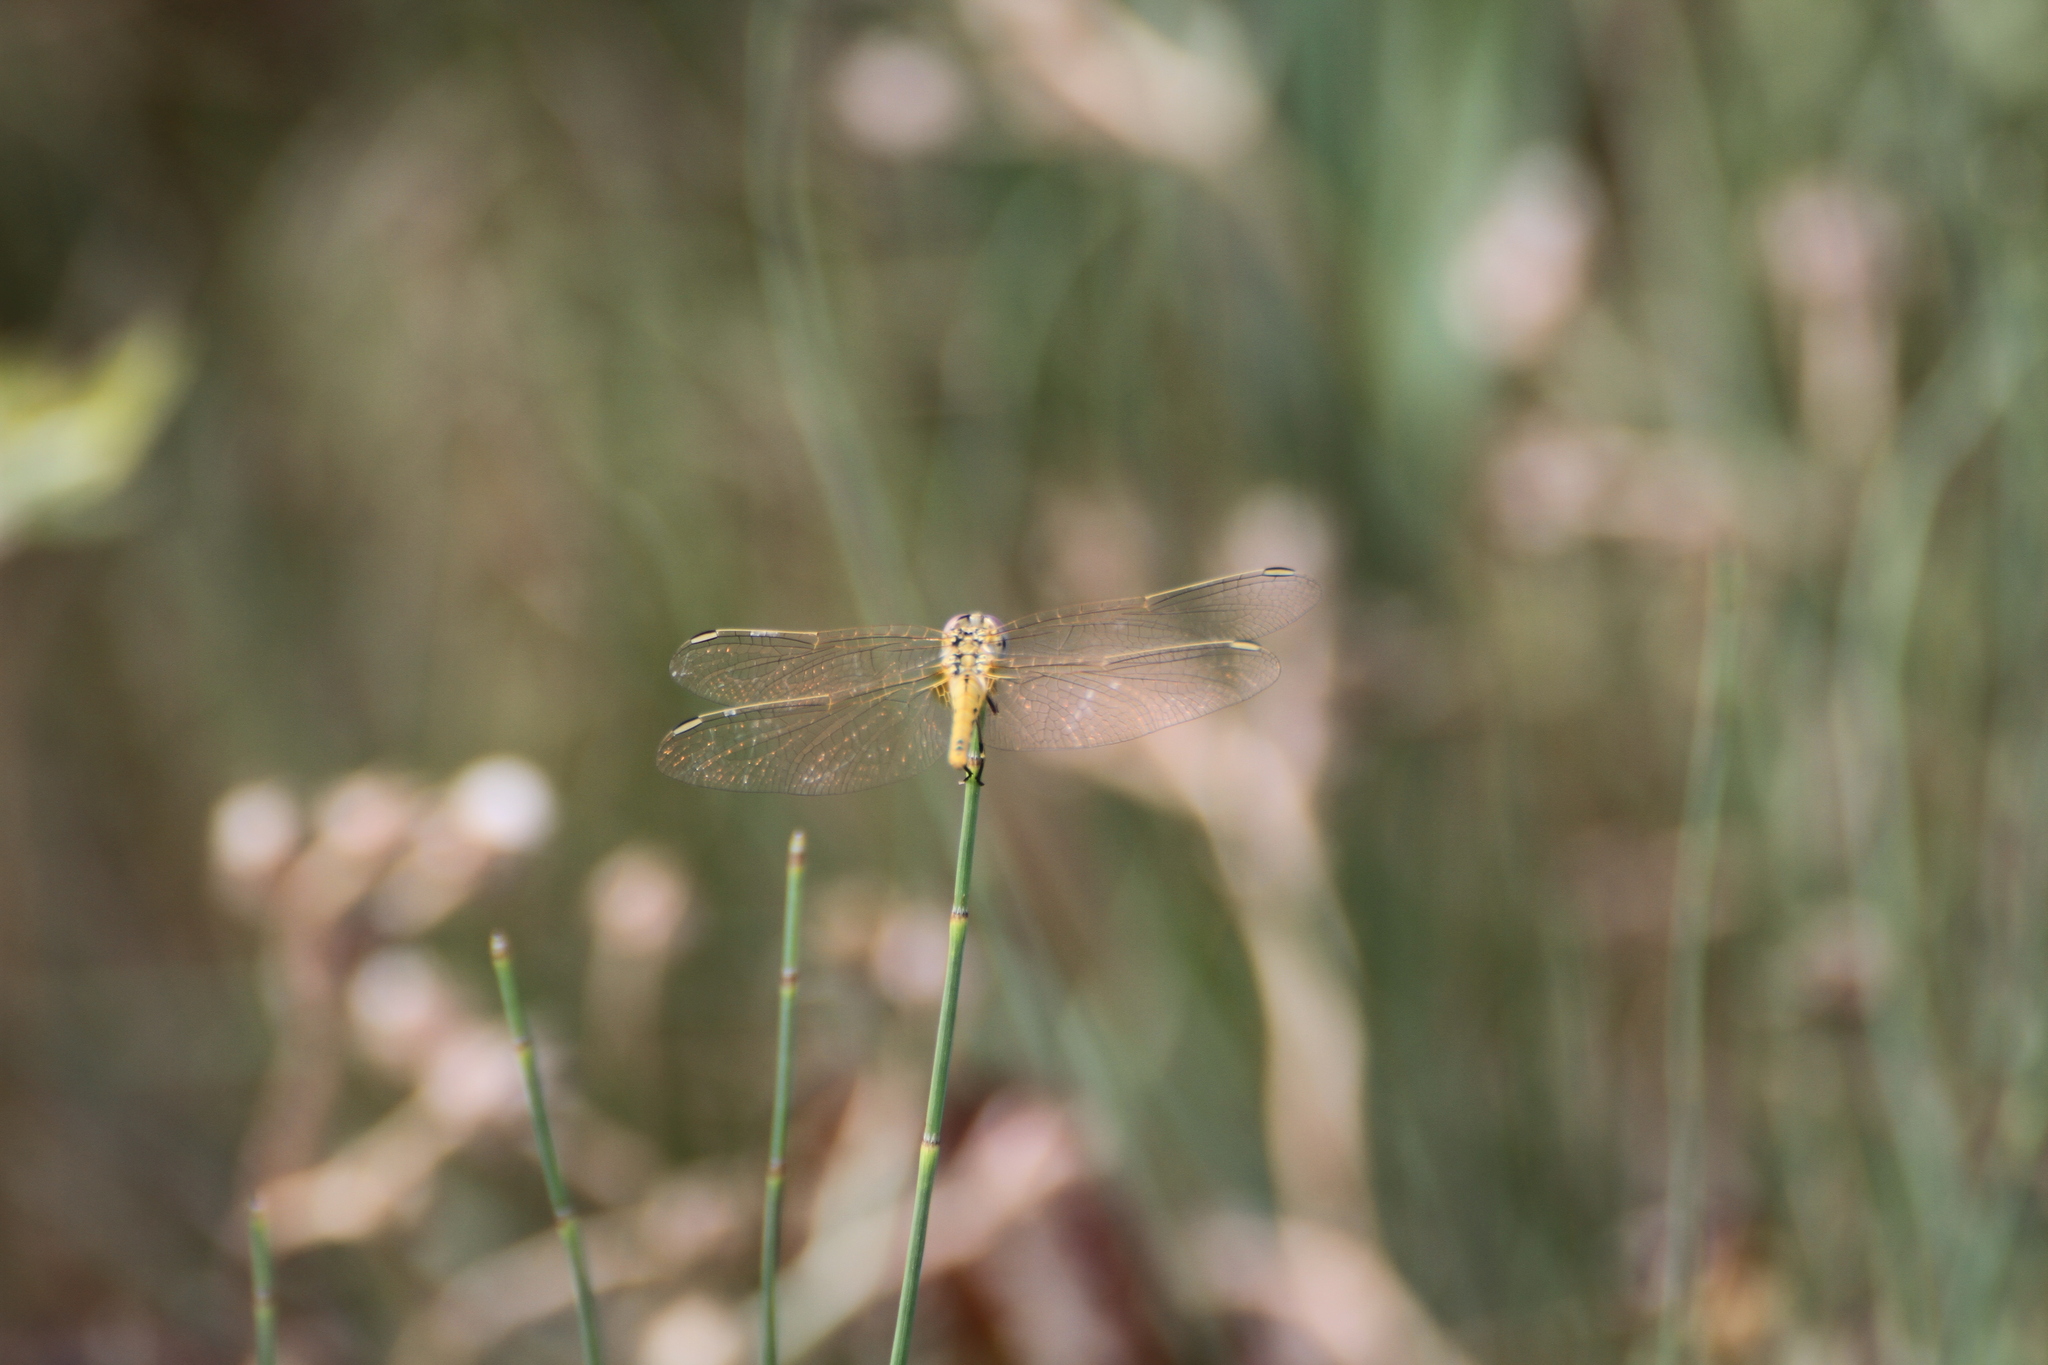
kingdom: Animalia
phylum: Arthropoda
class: Insecta
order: Odonata
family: Libellulidae
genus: Sympetrum
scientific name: Sympetrum fonscolombii
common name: Red-veined darter
